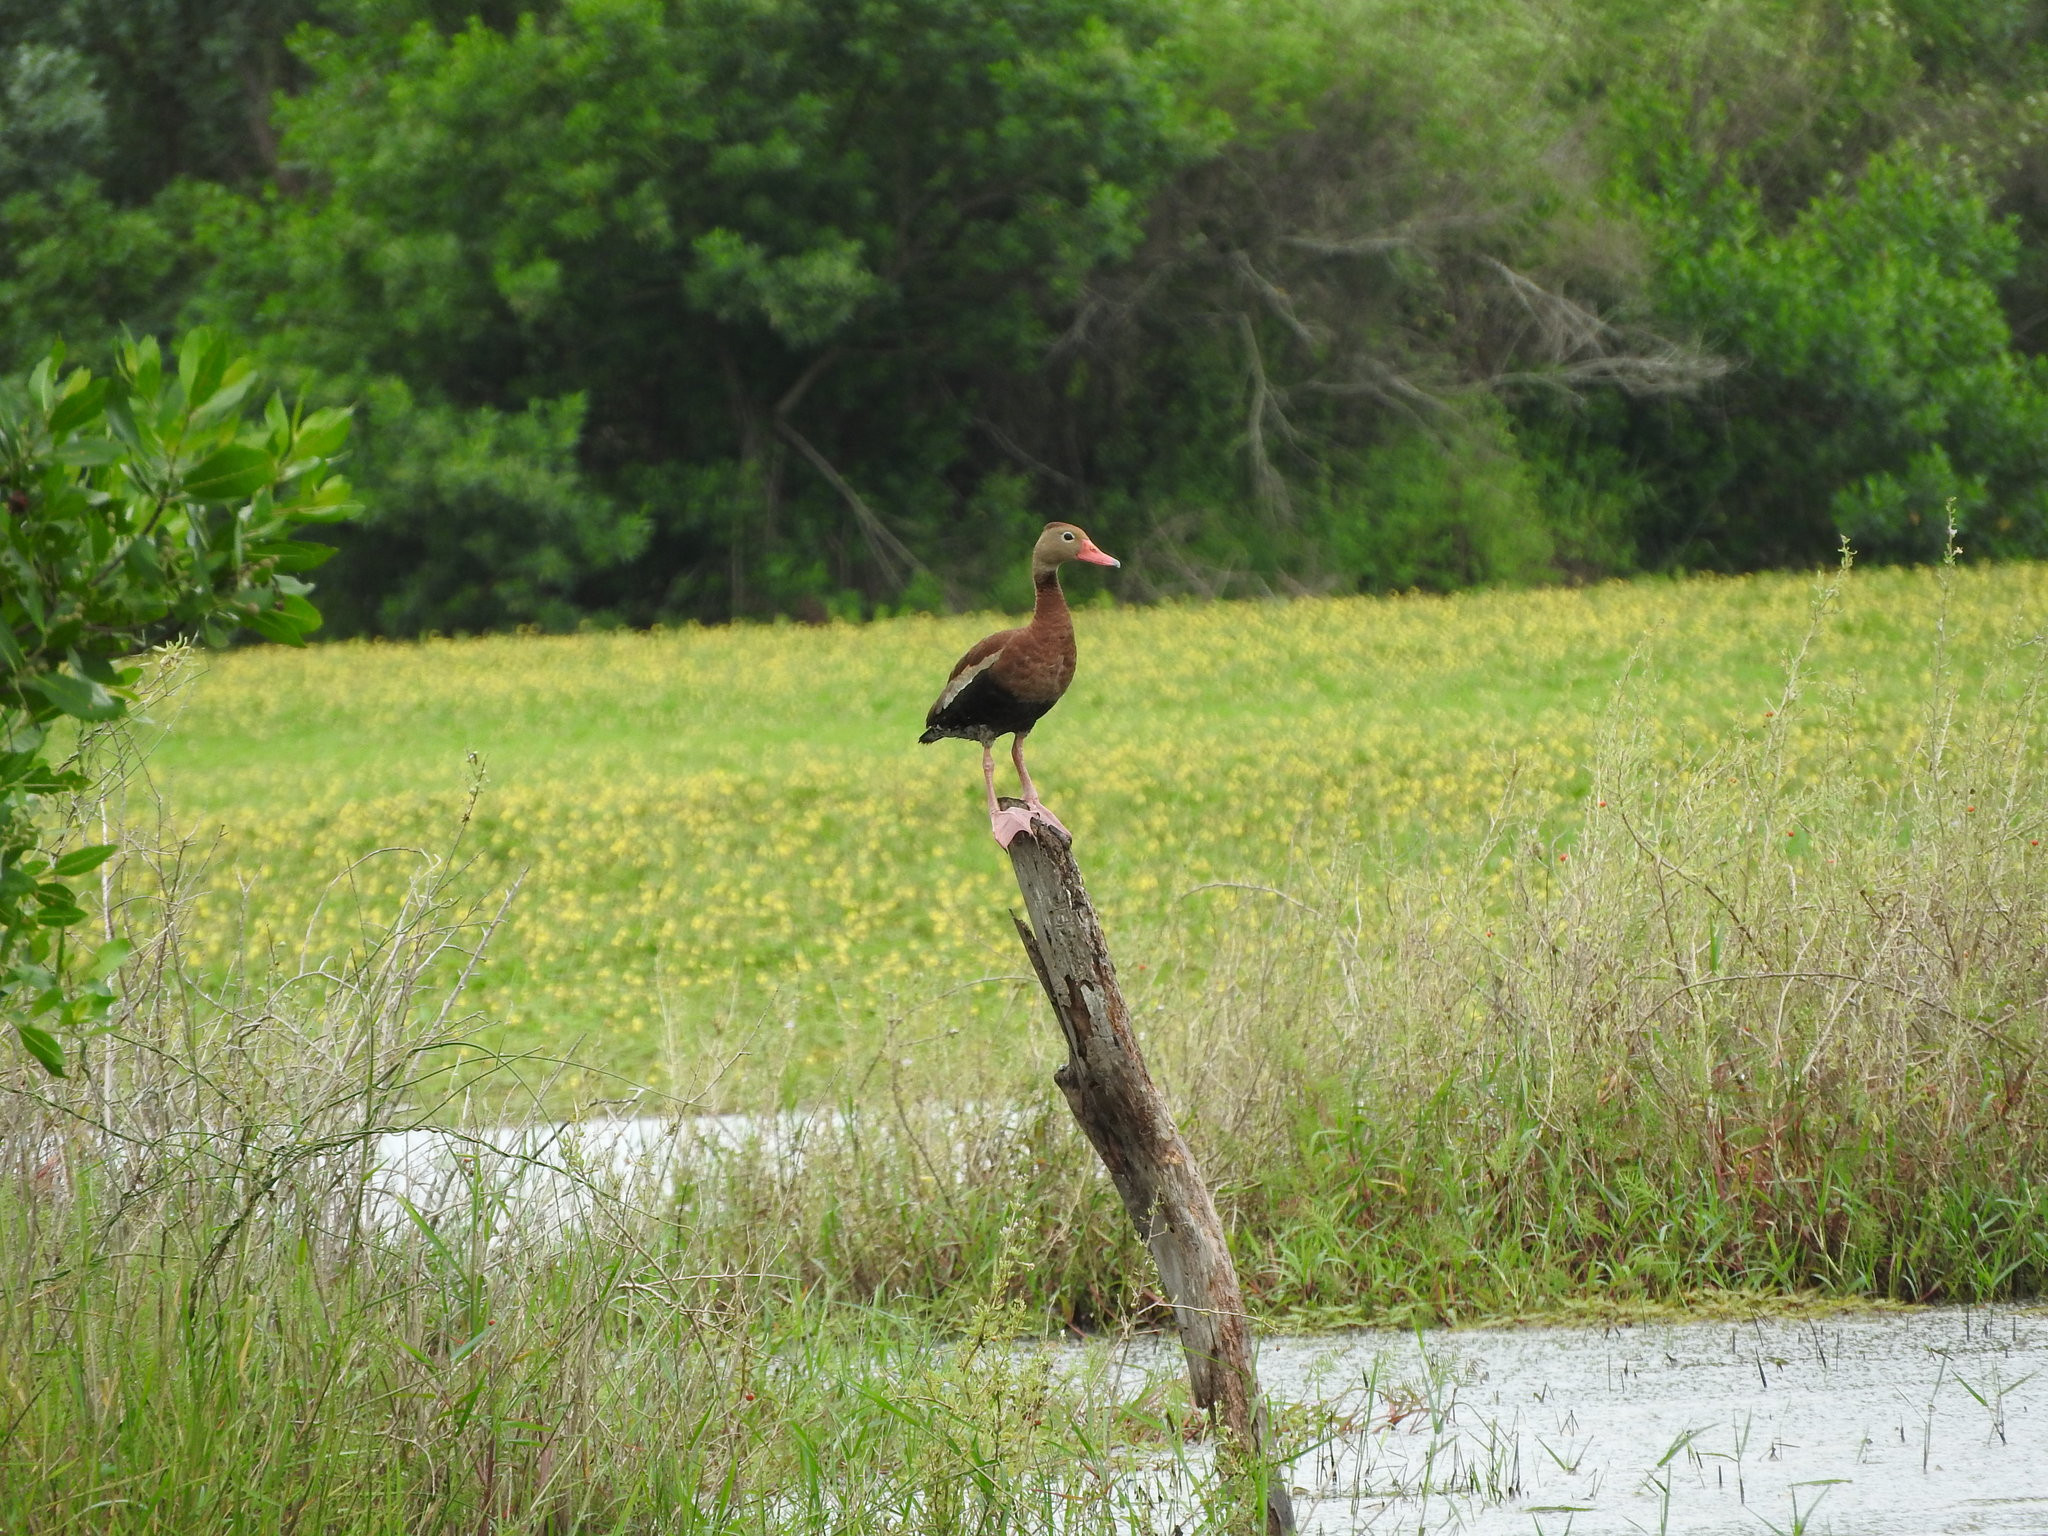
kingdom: Animalia
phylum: Chordata
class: Aves
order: Anseriformes
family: Anatidae
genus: Dendrocygna
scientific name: Dendrocygna autumnalis
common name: Black-bellied whistling duck
